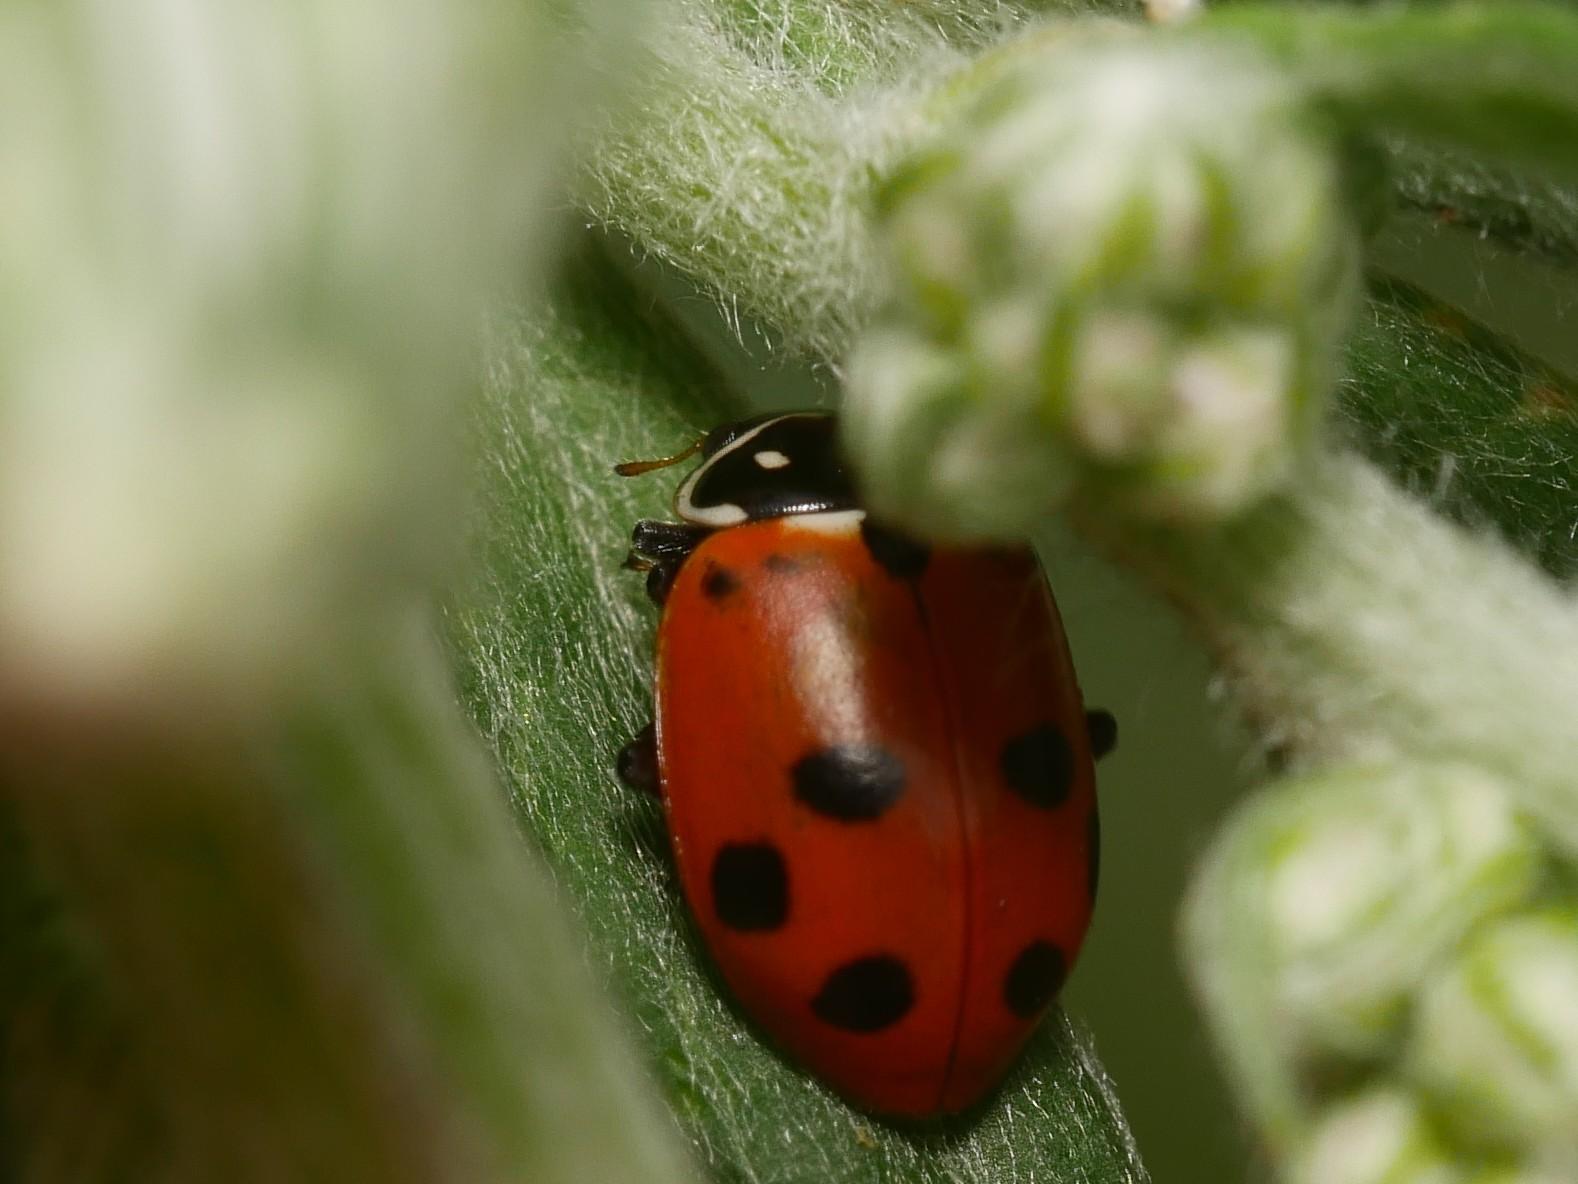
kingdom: Animalia
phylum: Arthropoda
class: Insecta
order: Coleoptera
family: Coccinellidae
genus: Hippodamia
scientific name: Hippodamia variegata
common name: Ladybird beetle
